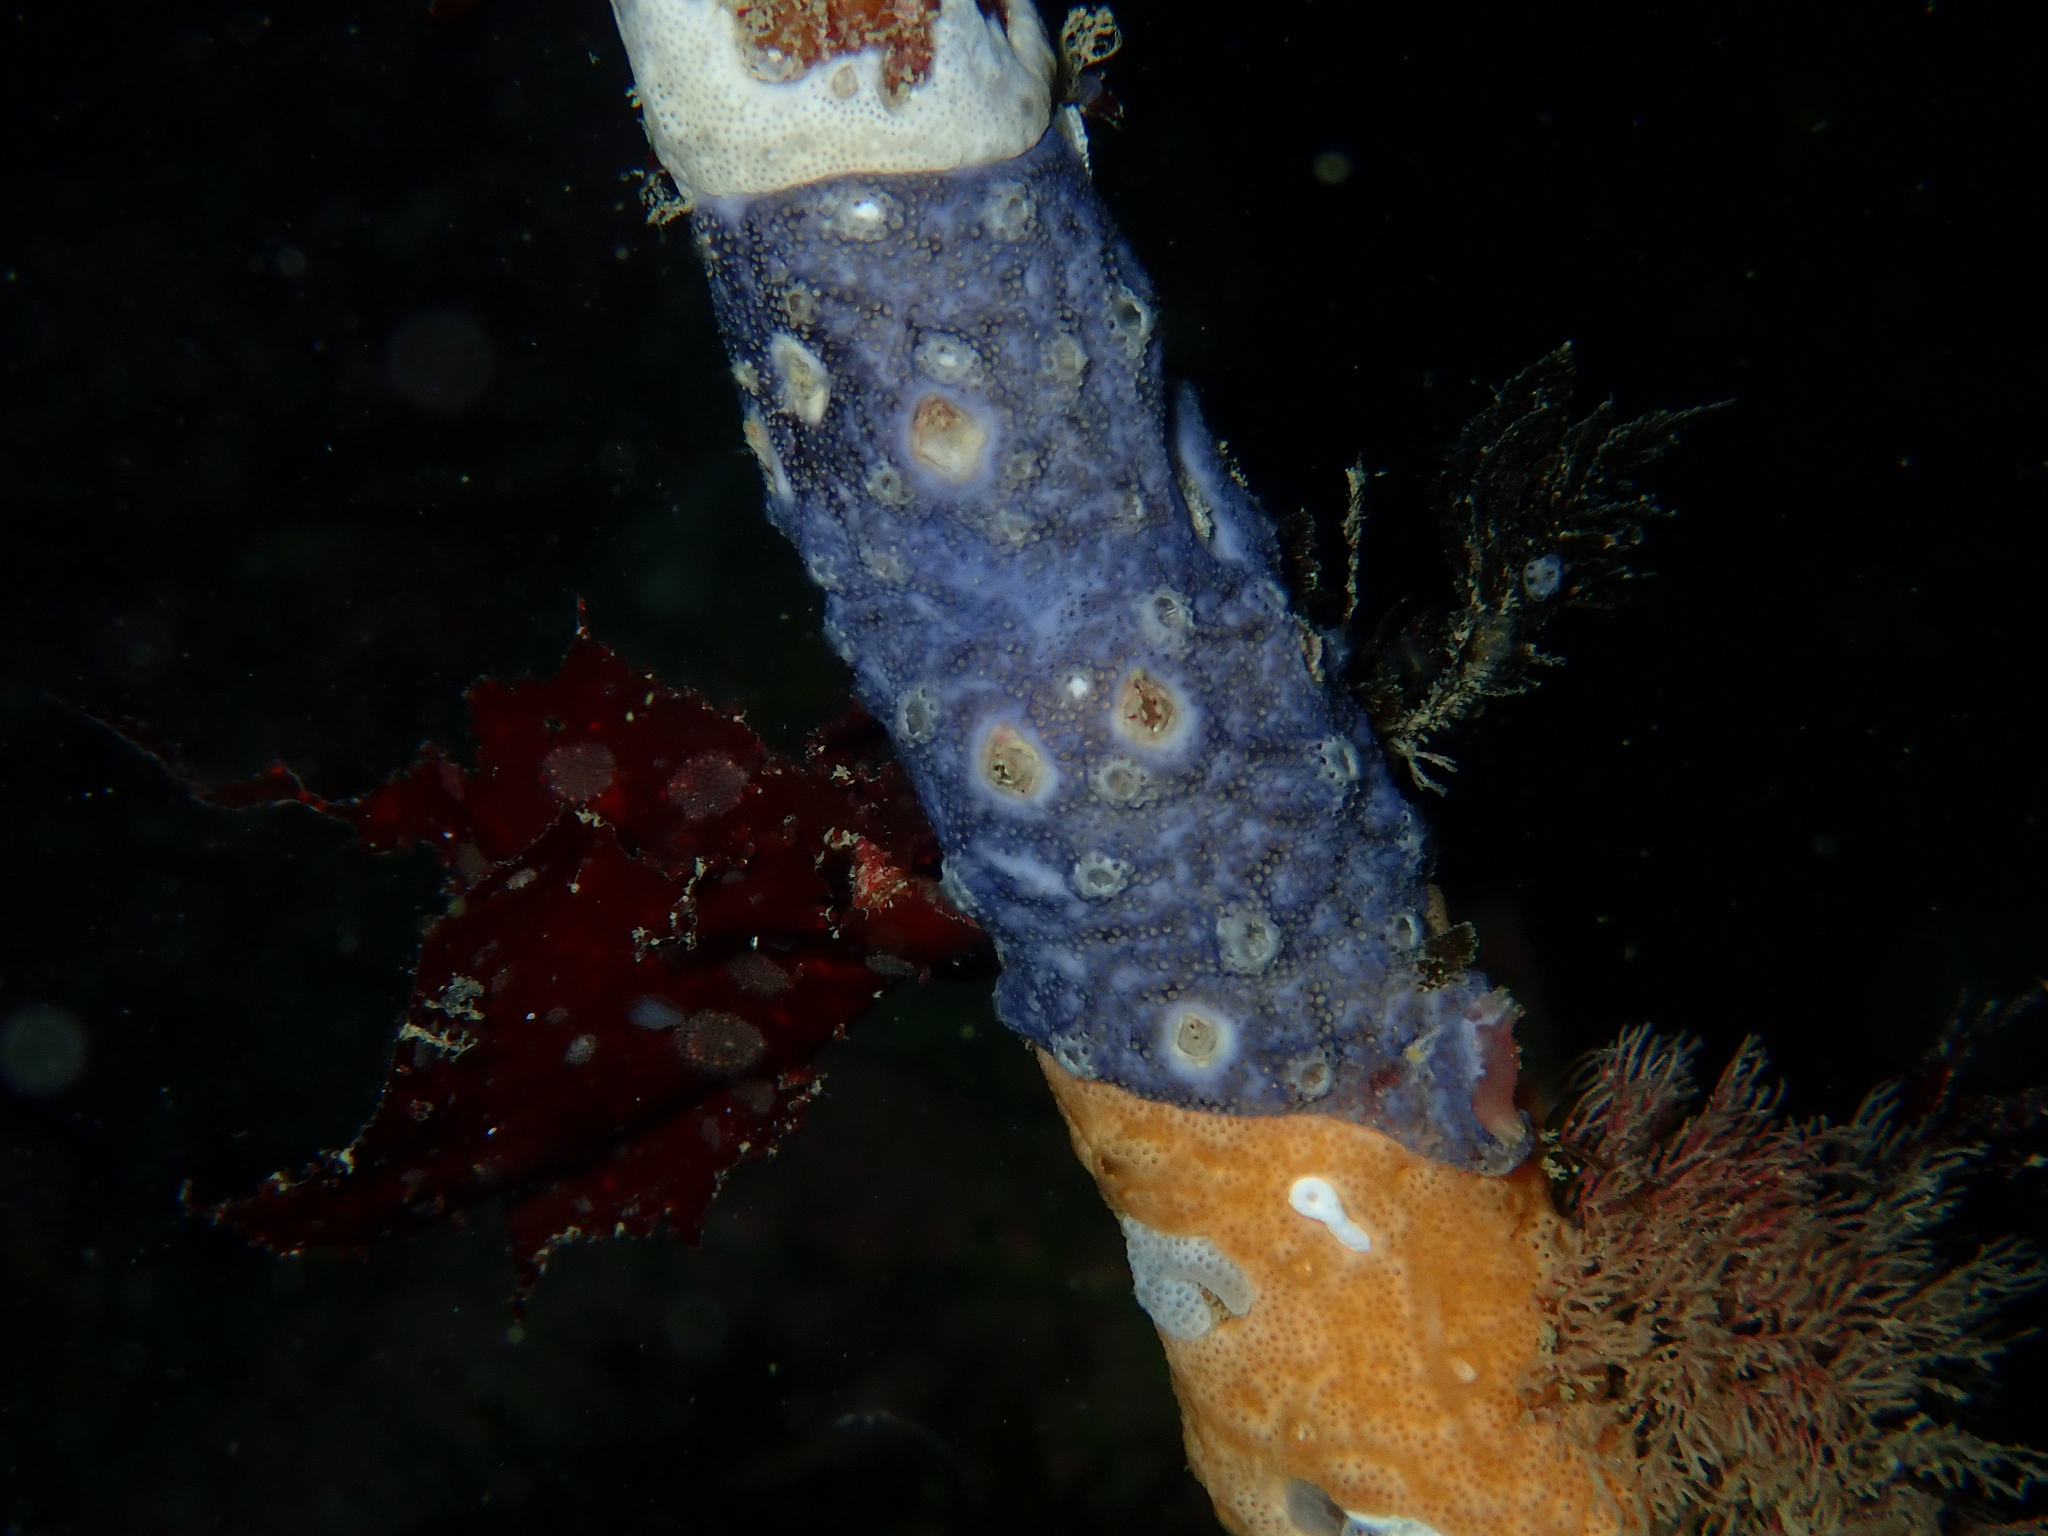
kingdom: Animalia
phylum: Chordata
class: Ascidiacea
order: Aplousobranchia
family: Didemnidae
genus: Didemnum
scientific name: Didemnum maculosum
